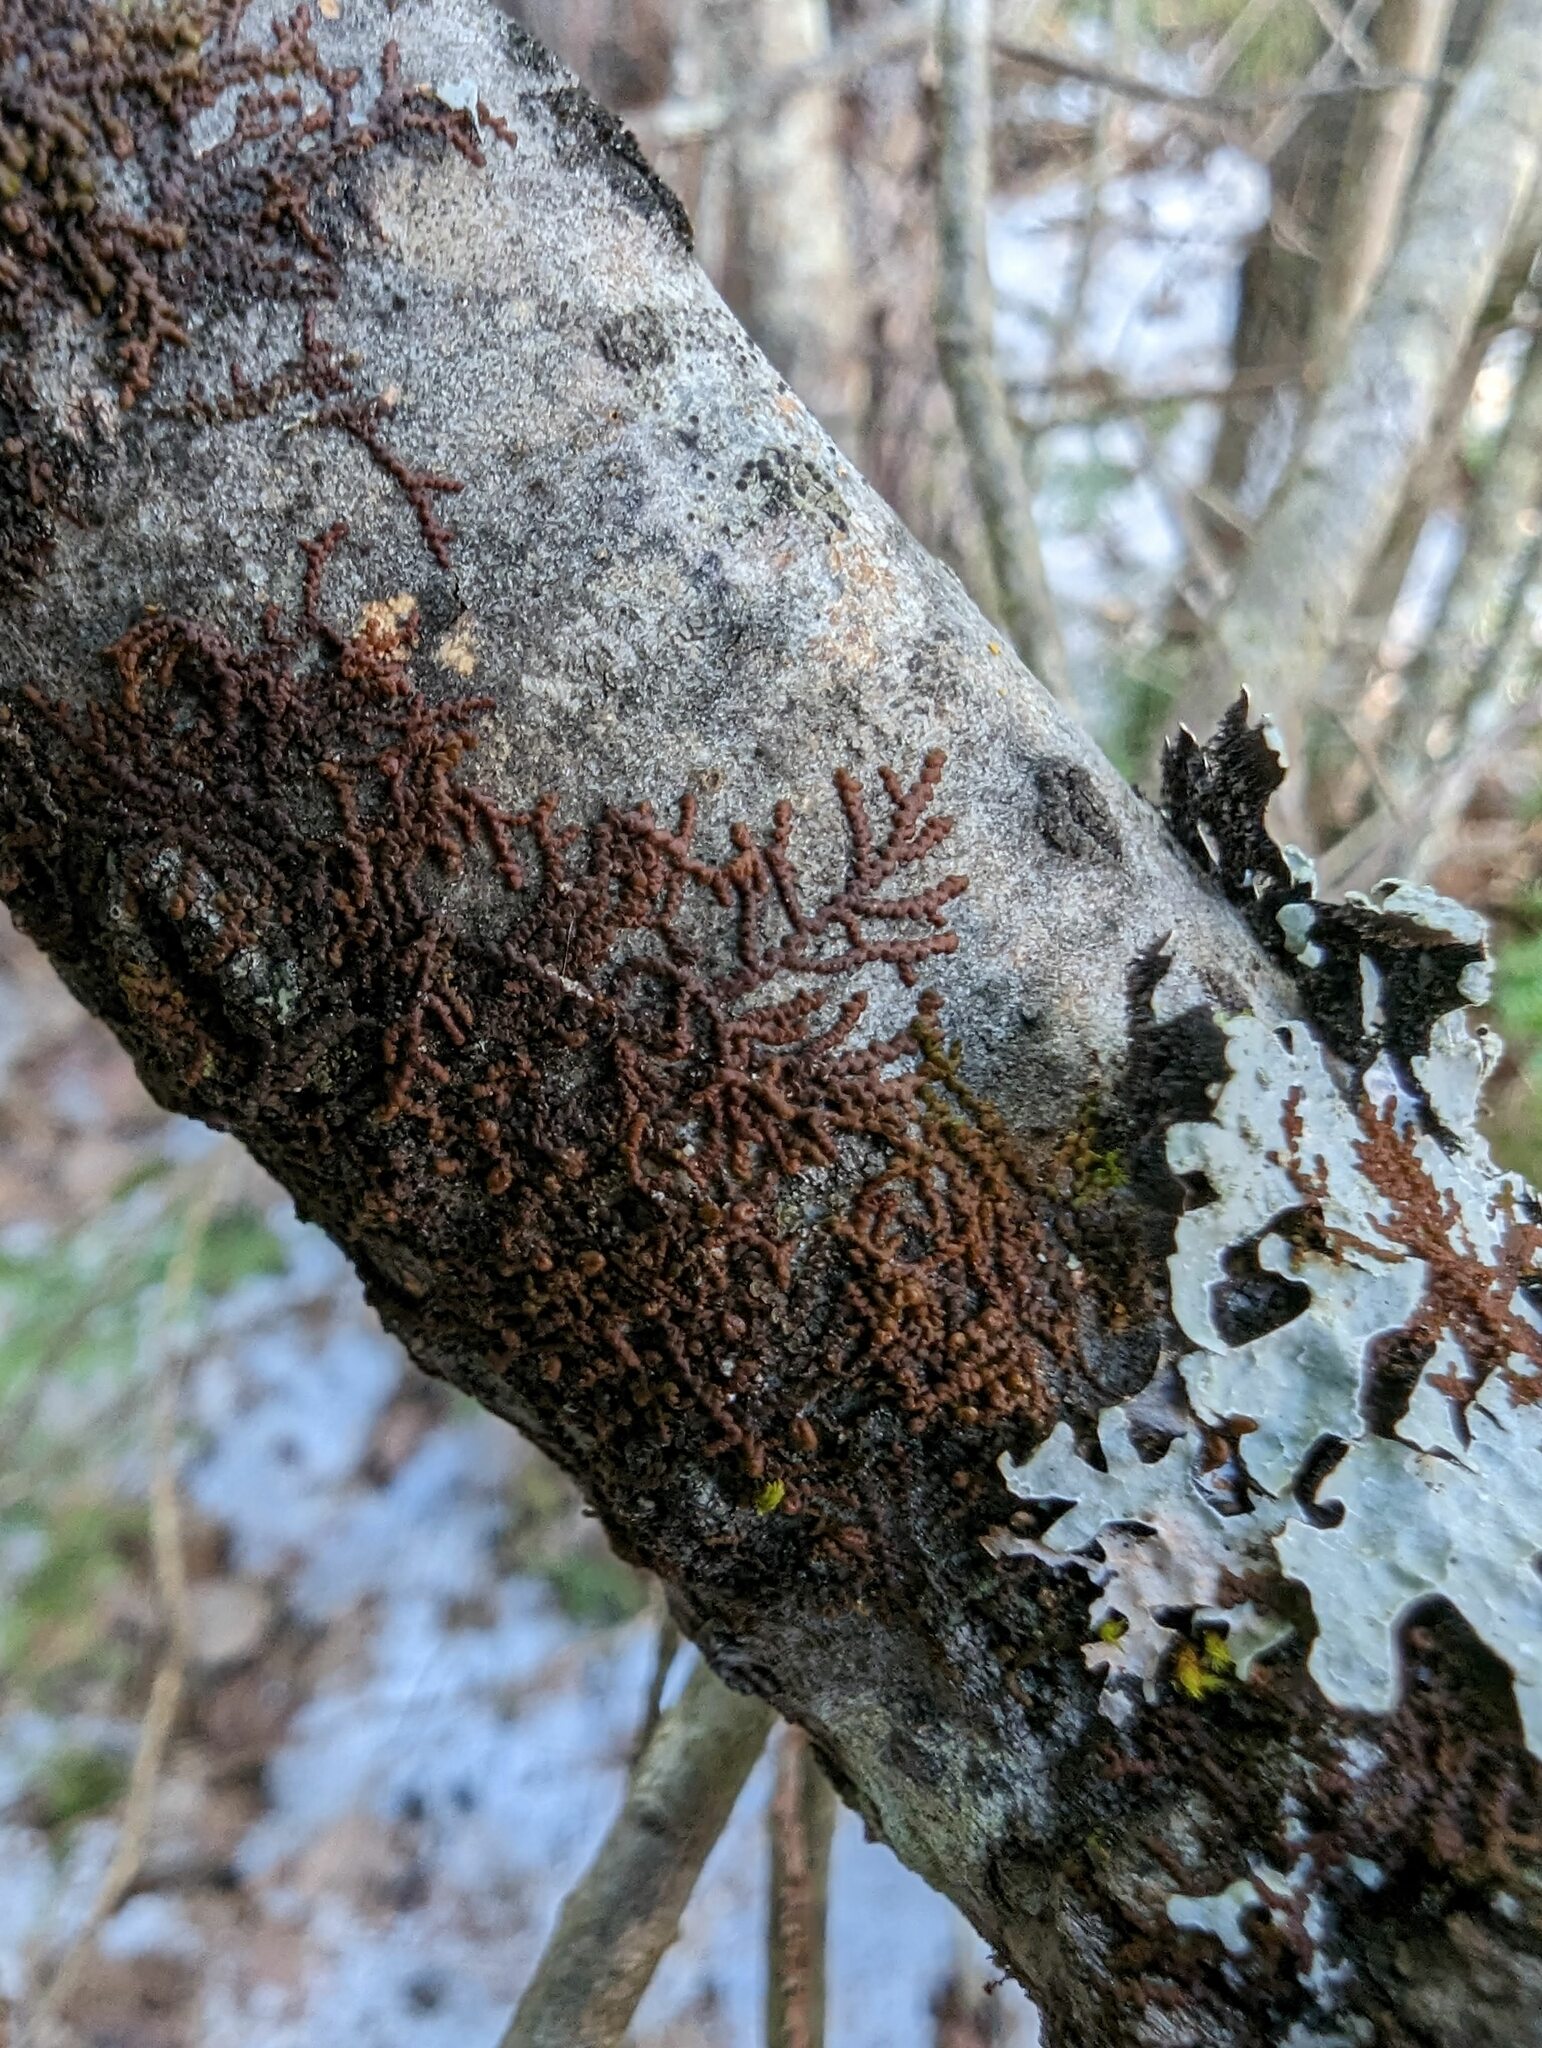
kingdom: Plantae
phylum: Marchantiophyta
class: Jungermanniopsida
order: Porellales
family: Frullaniaceae
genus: Frullania
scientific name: Frullania eboracensis
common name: New york scalewort
